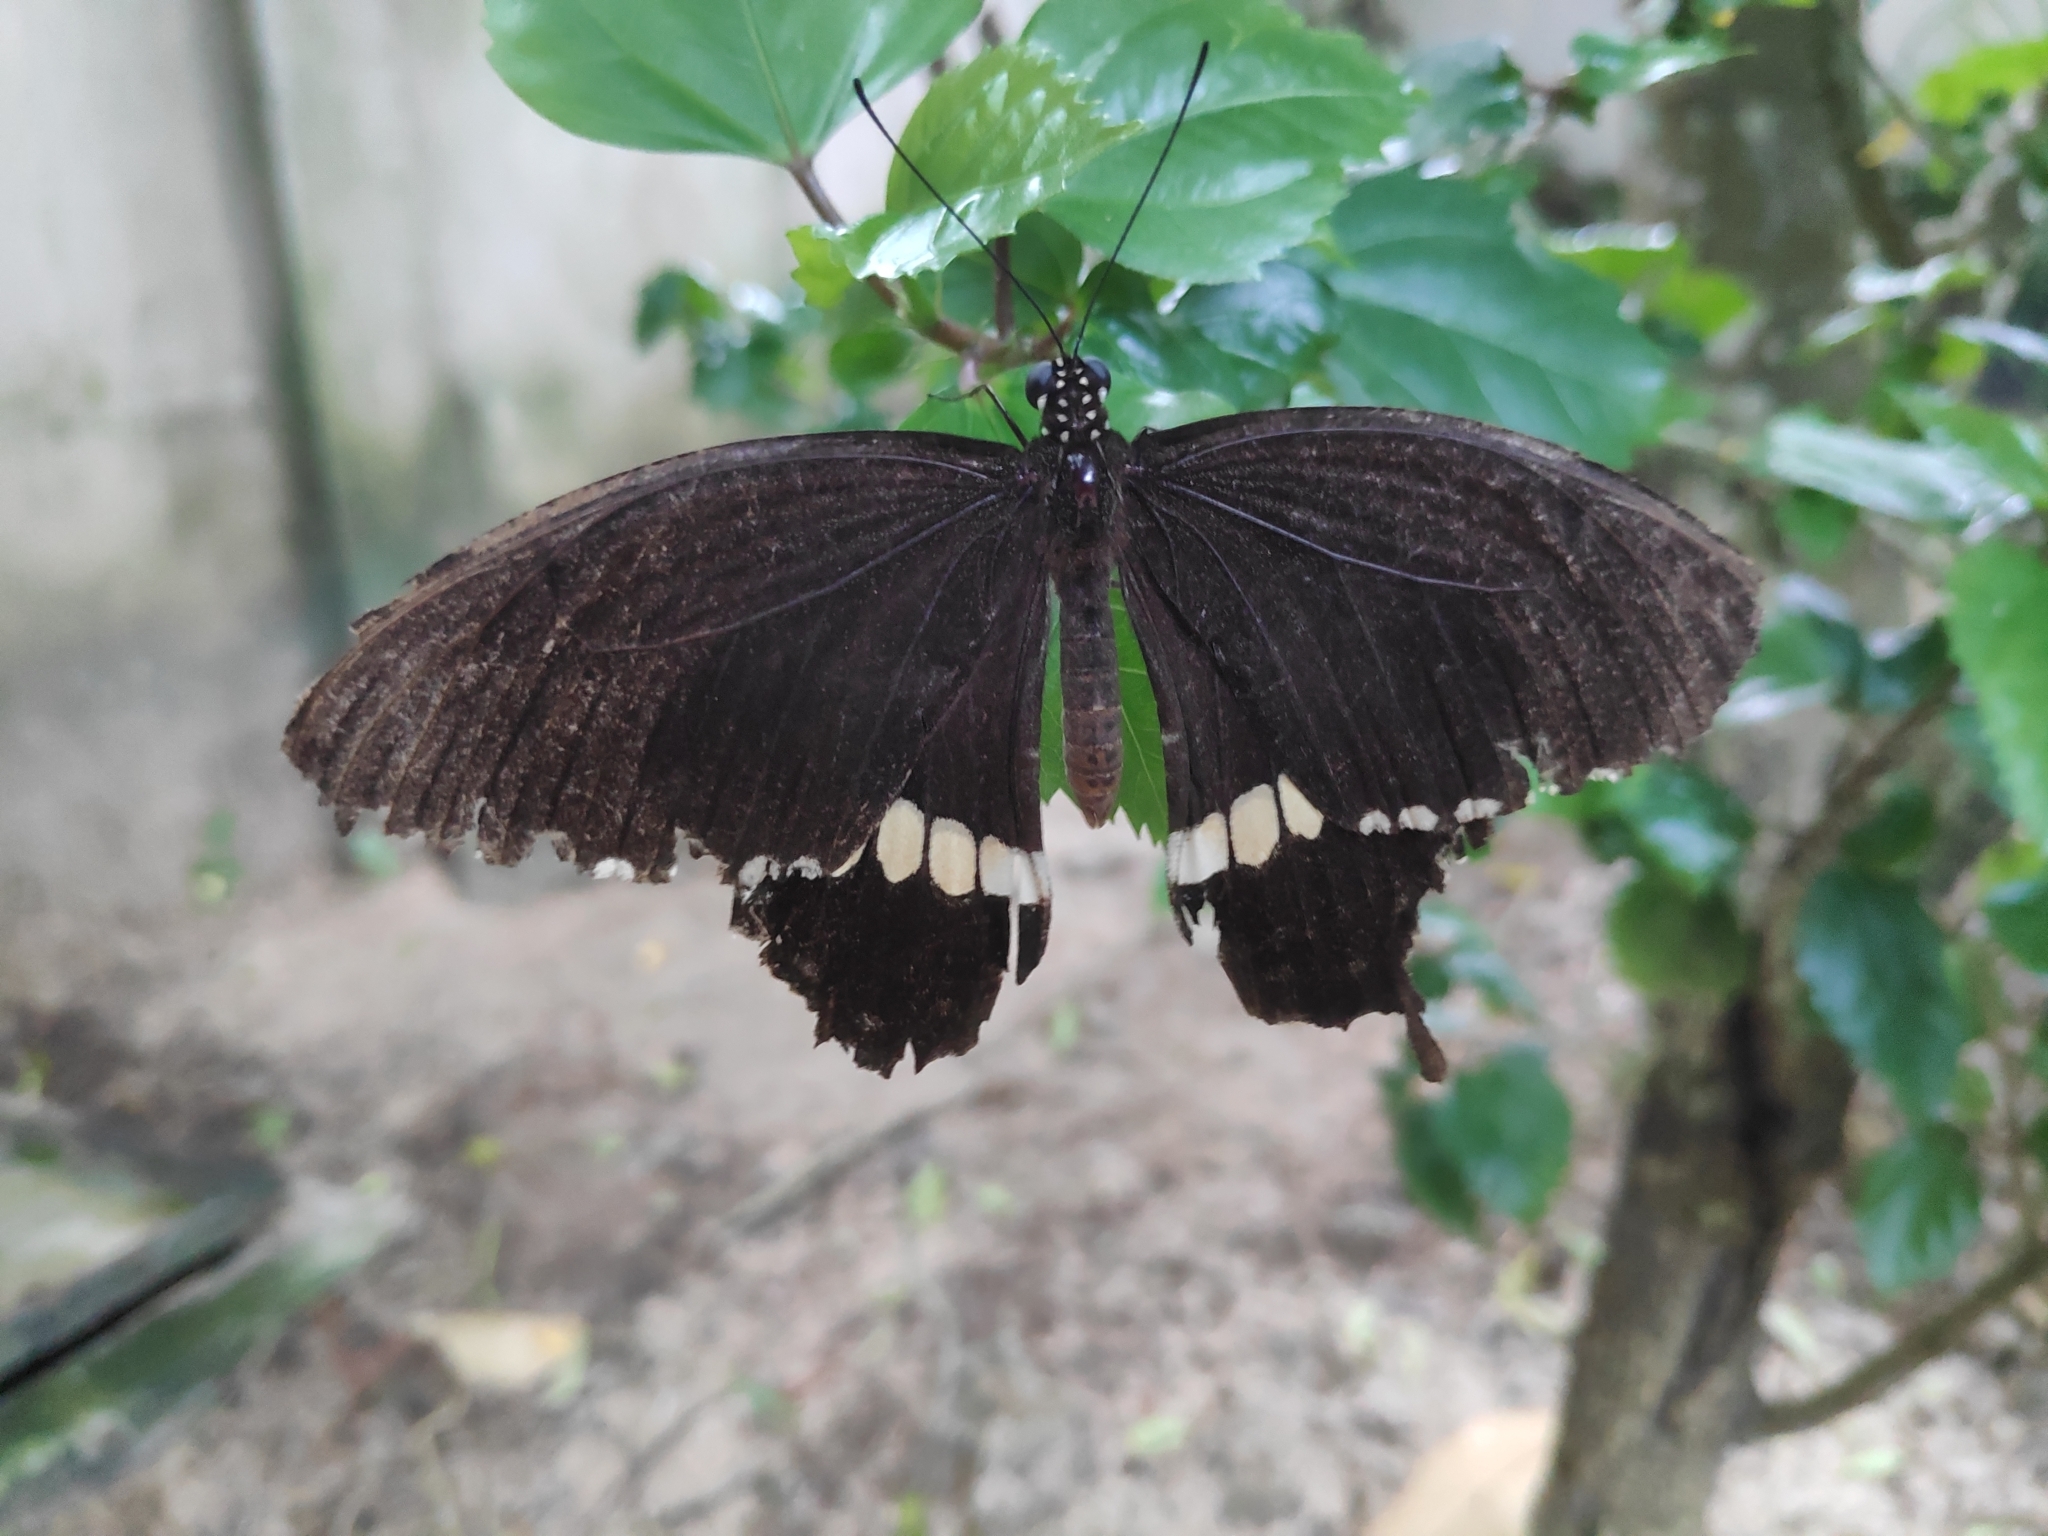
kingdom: Animalia
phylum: Arthropoda
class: Insecta
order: Lepidoptera
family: Papilionidae
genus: Papilio
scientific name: Papilio polytes
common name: Common mormon
